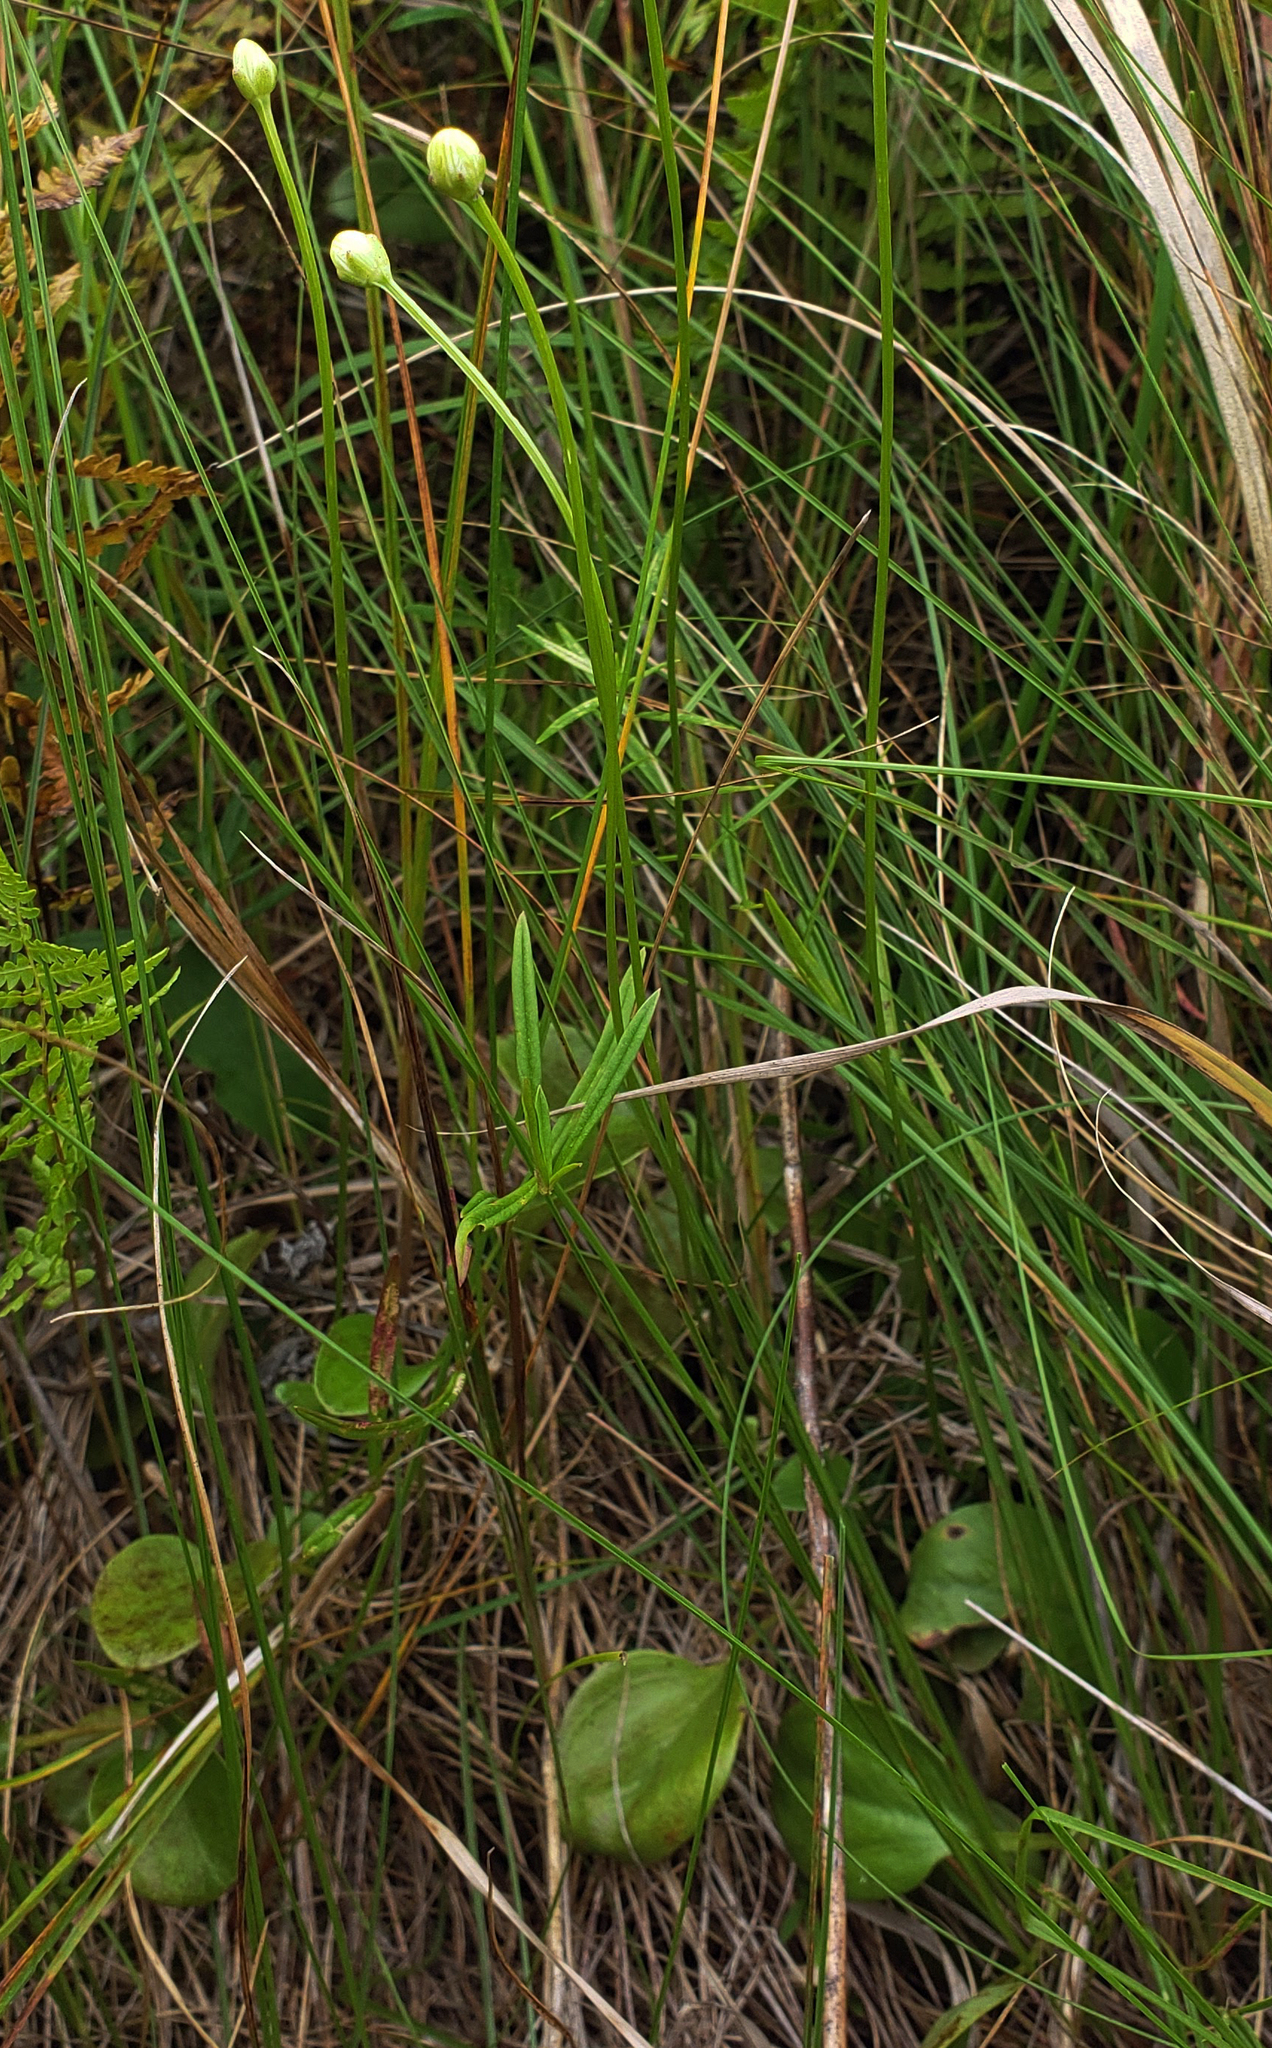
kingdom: Plantae
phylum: Tracheophyta
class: Magnoliopsida
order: Celastrales
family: Parnassiaceae
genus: Parnassia
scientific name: Parnassia glauca
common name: American grass-of-parnassus
